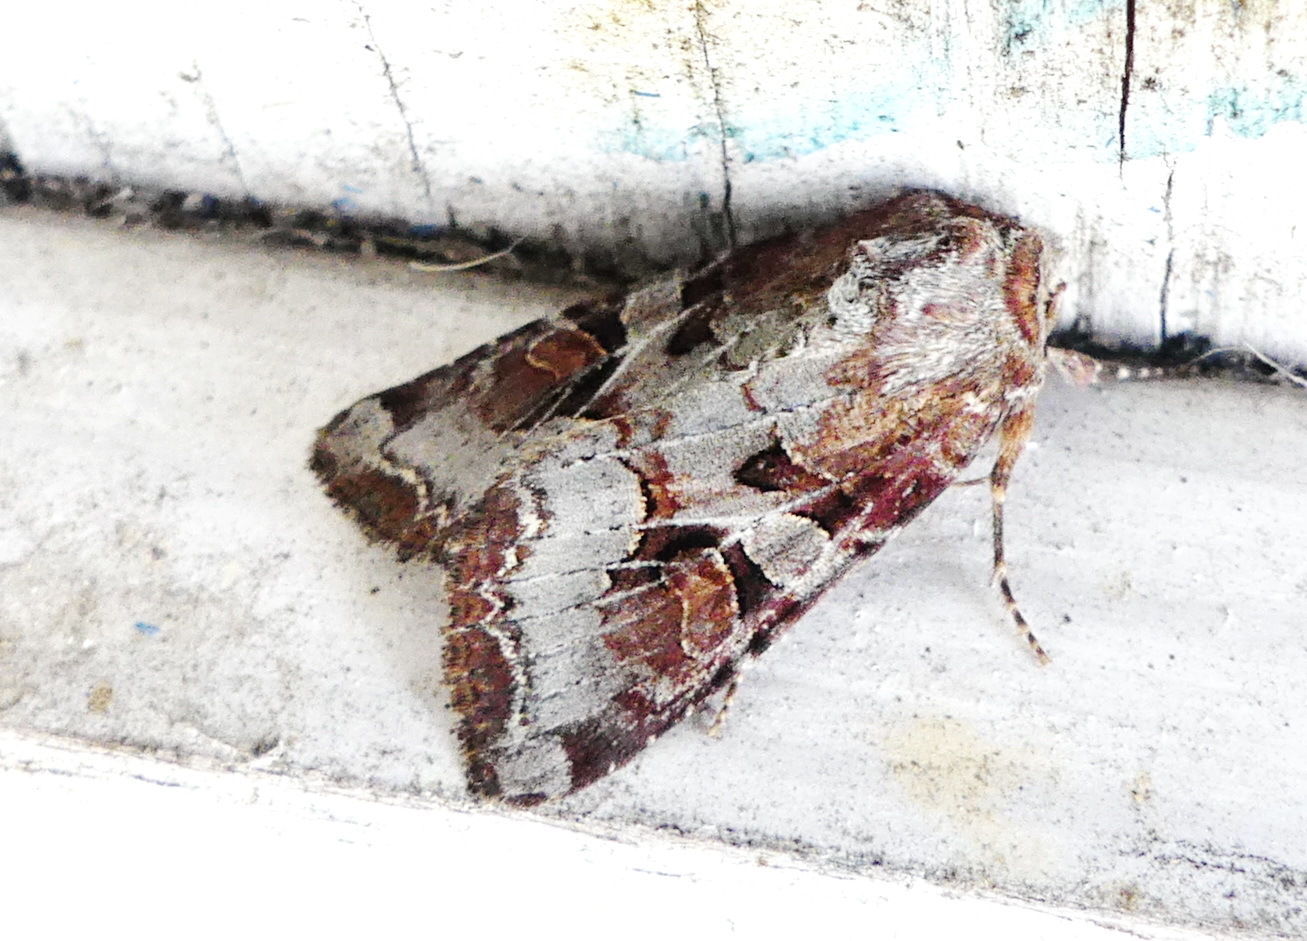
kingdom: Animalia
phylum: Arthropoda
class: Insecta
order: Lepidoptera
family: Noctuidae
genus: Trichordestra
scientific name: Trichordestra legitima
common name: Striped garden caterpillar
